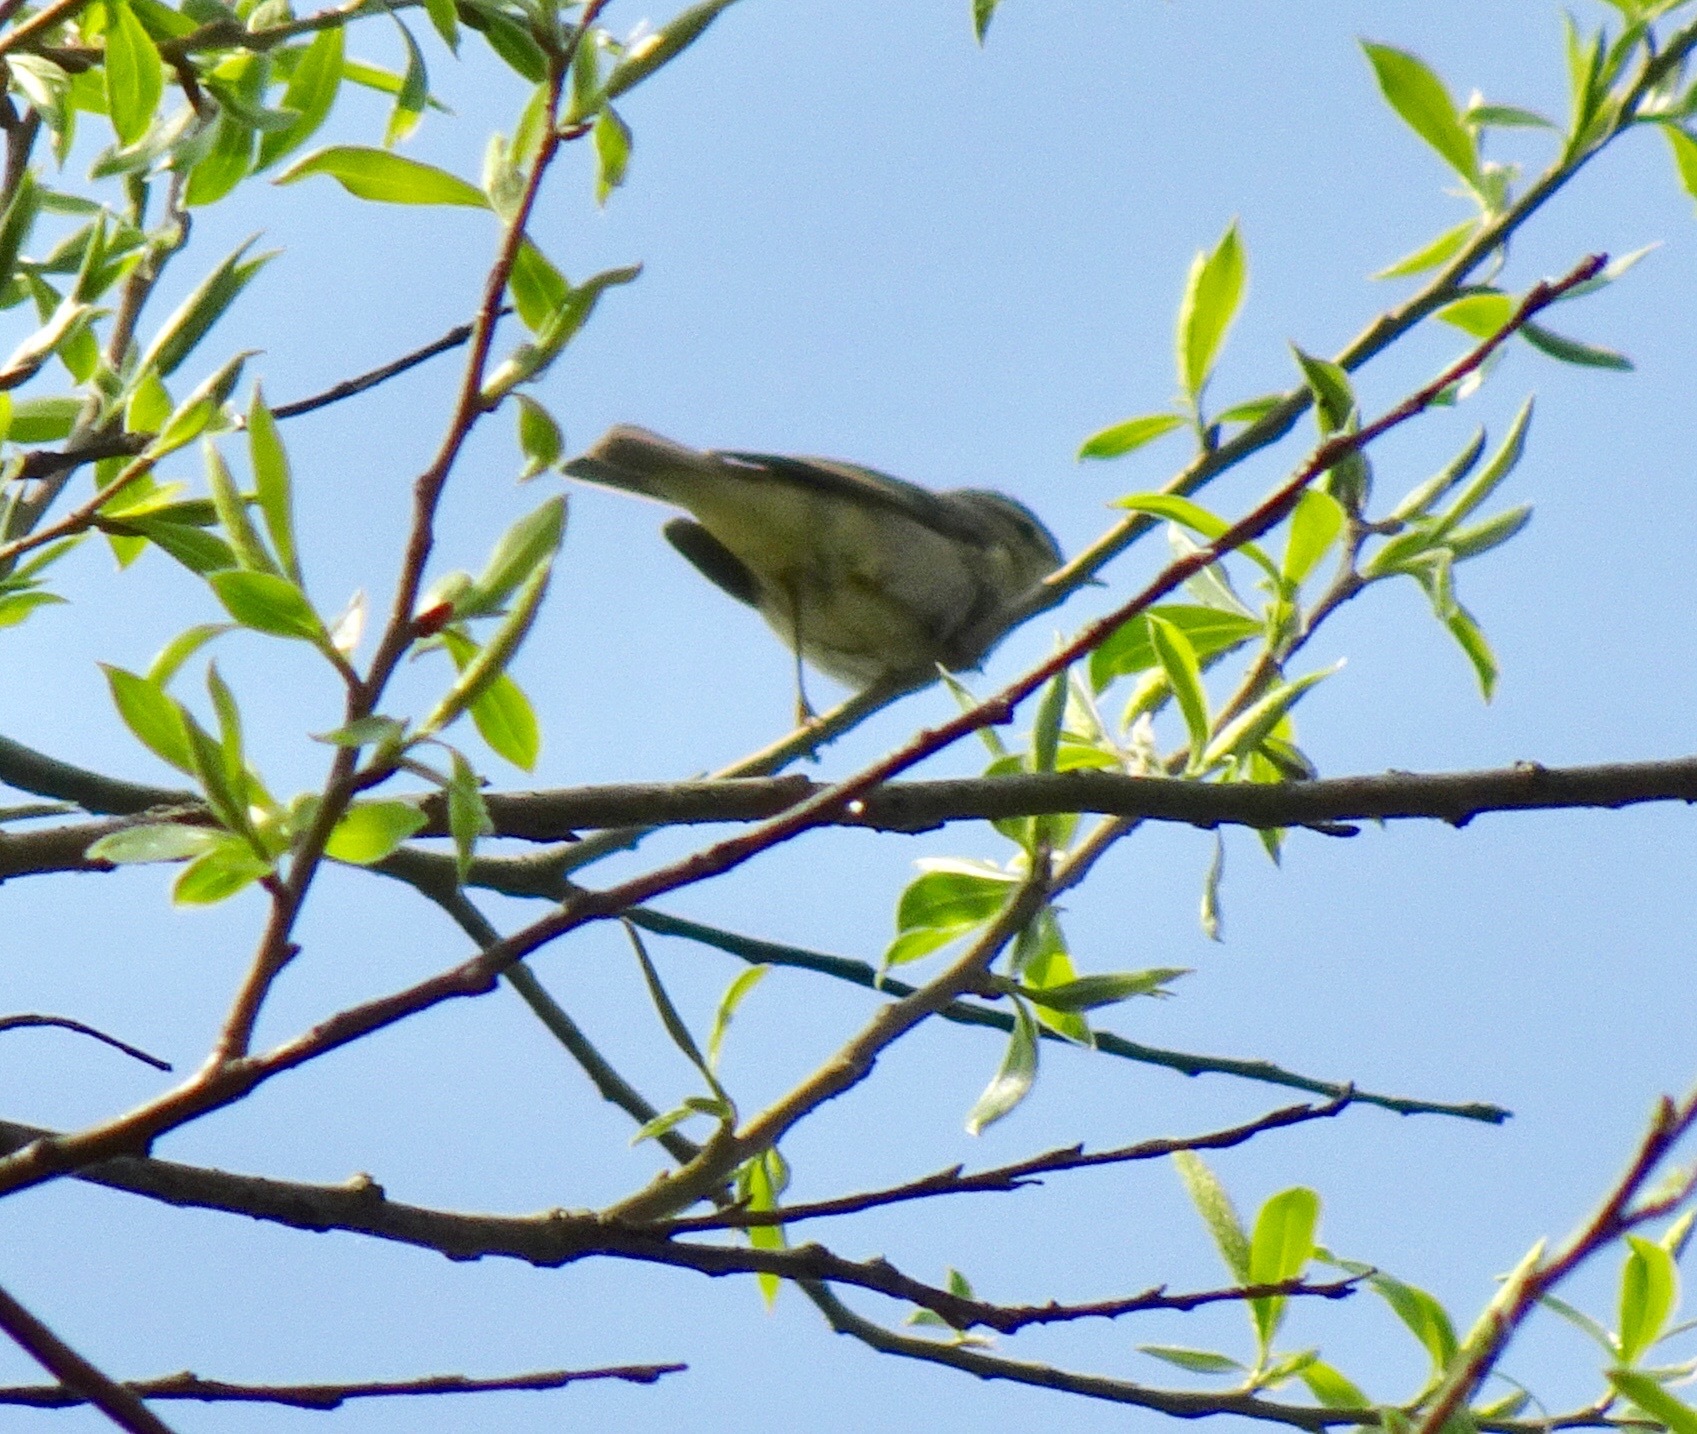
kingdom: Animalia
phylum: Chordata
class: Aves
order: Passeriformes
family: Phylloscopidae
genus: Phylloscopus
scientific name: Phylloscopus trochilus
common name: Willow warbler
